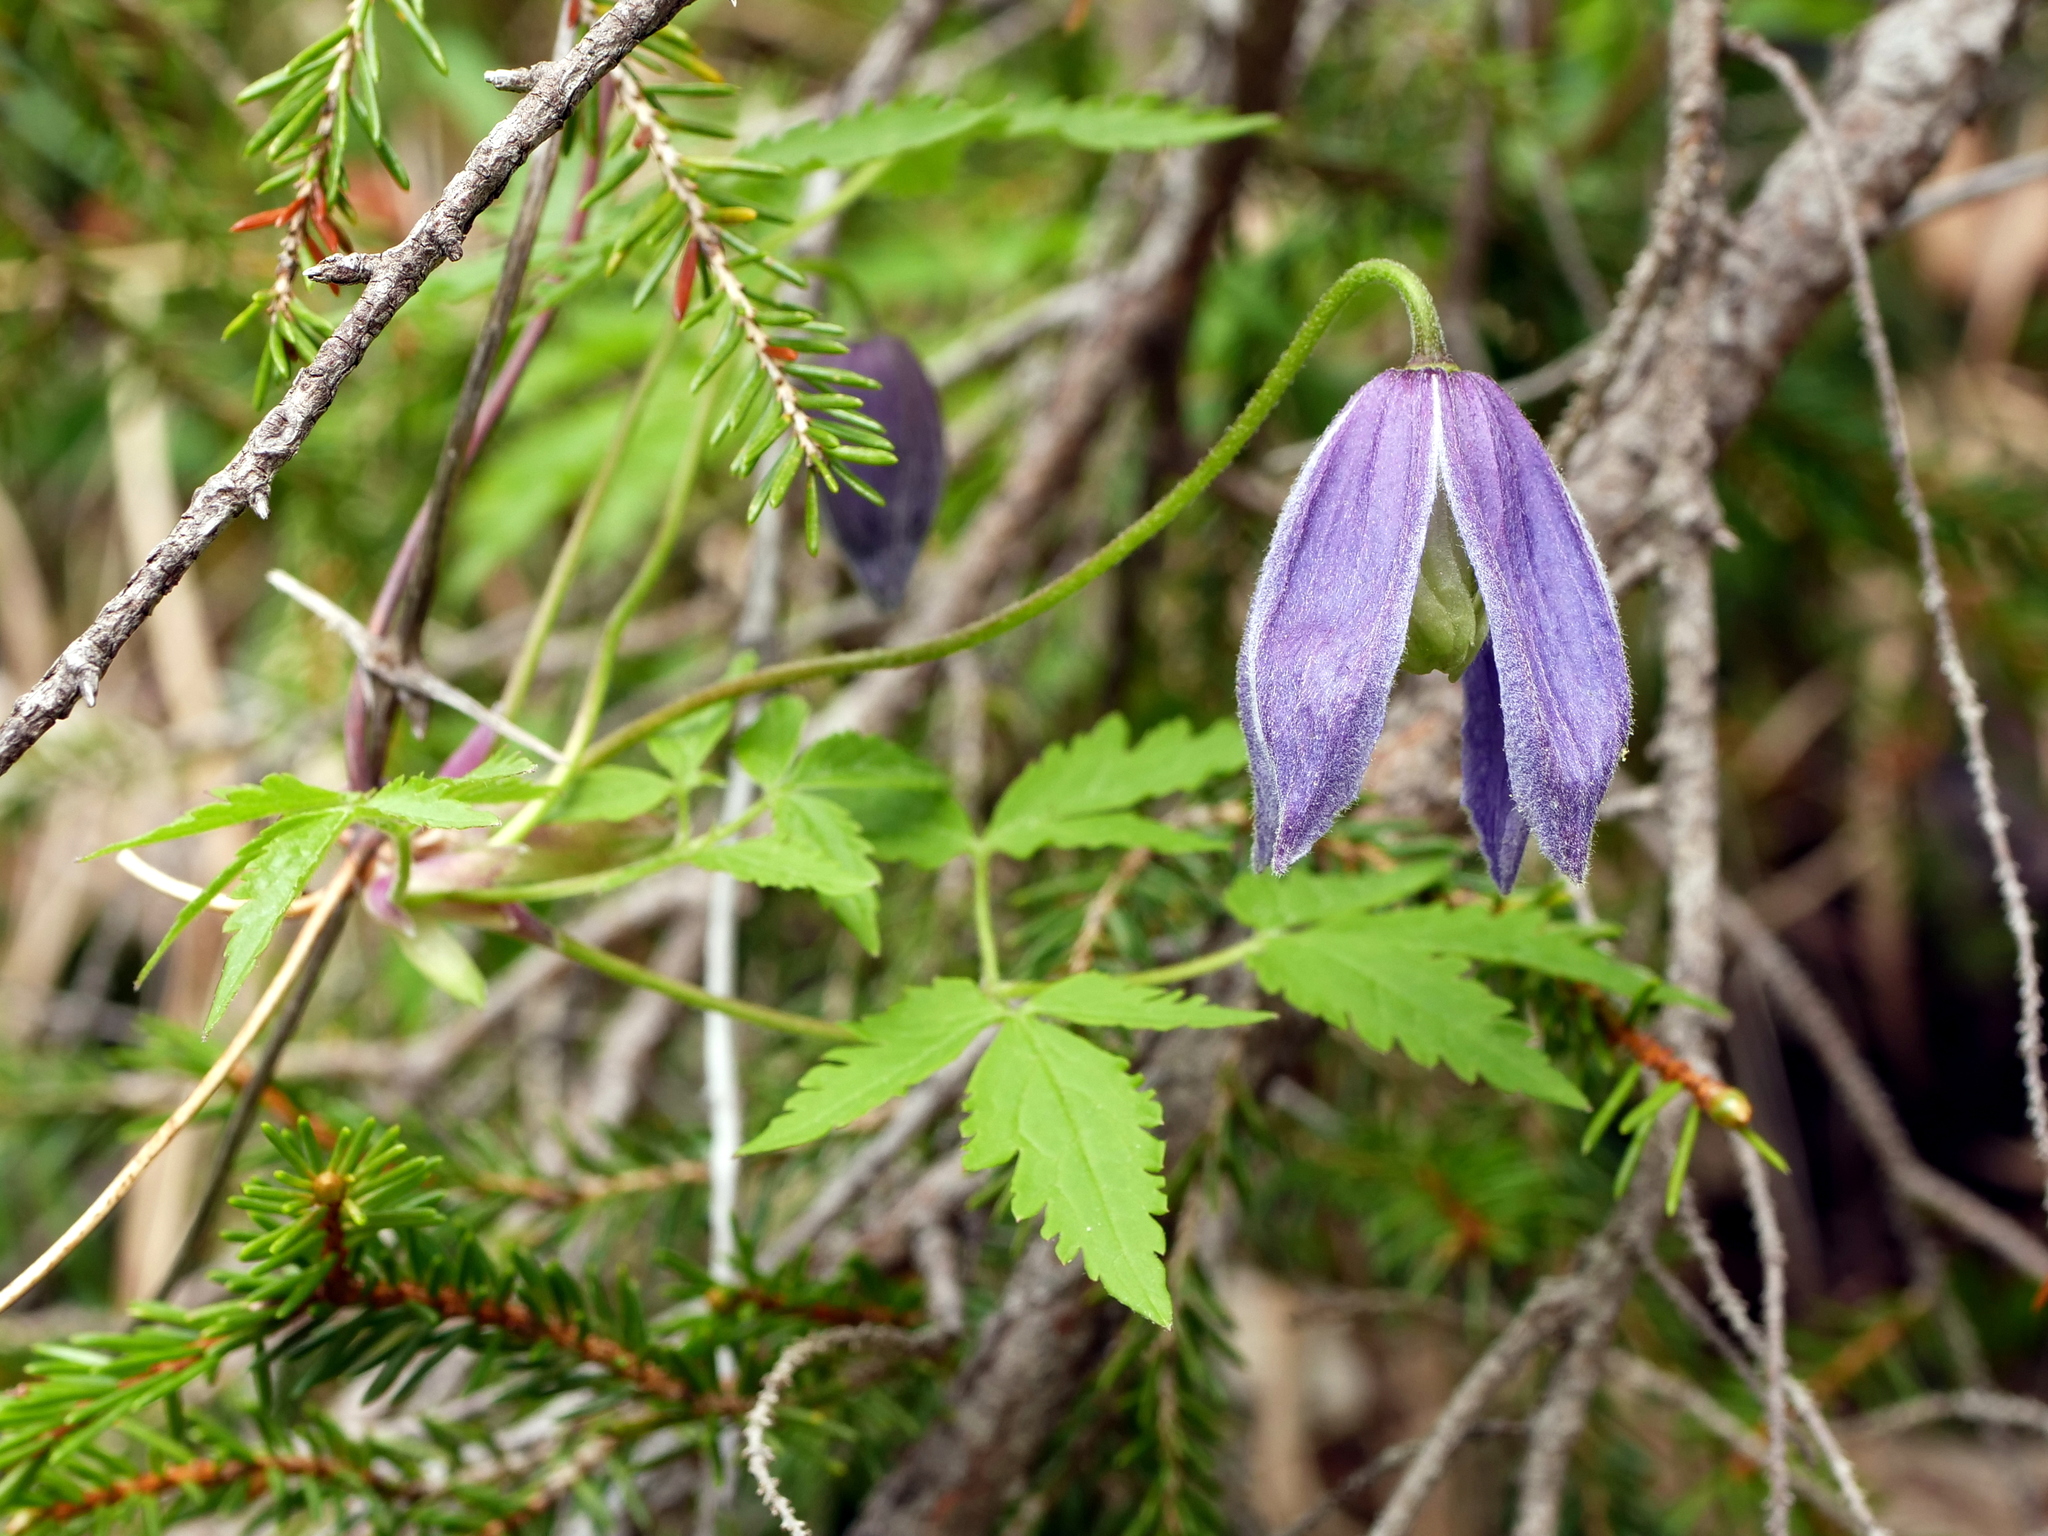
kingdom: Plantae
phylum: Tracheophyta
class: Magnoliopsida
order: Ranunculales
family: Ranunculaceae
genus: Clematis
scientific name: Clematis alpina
